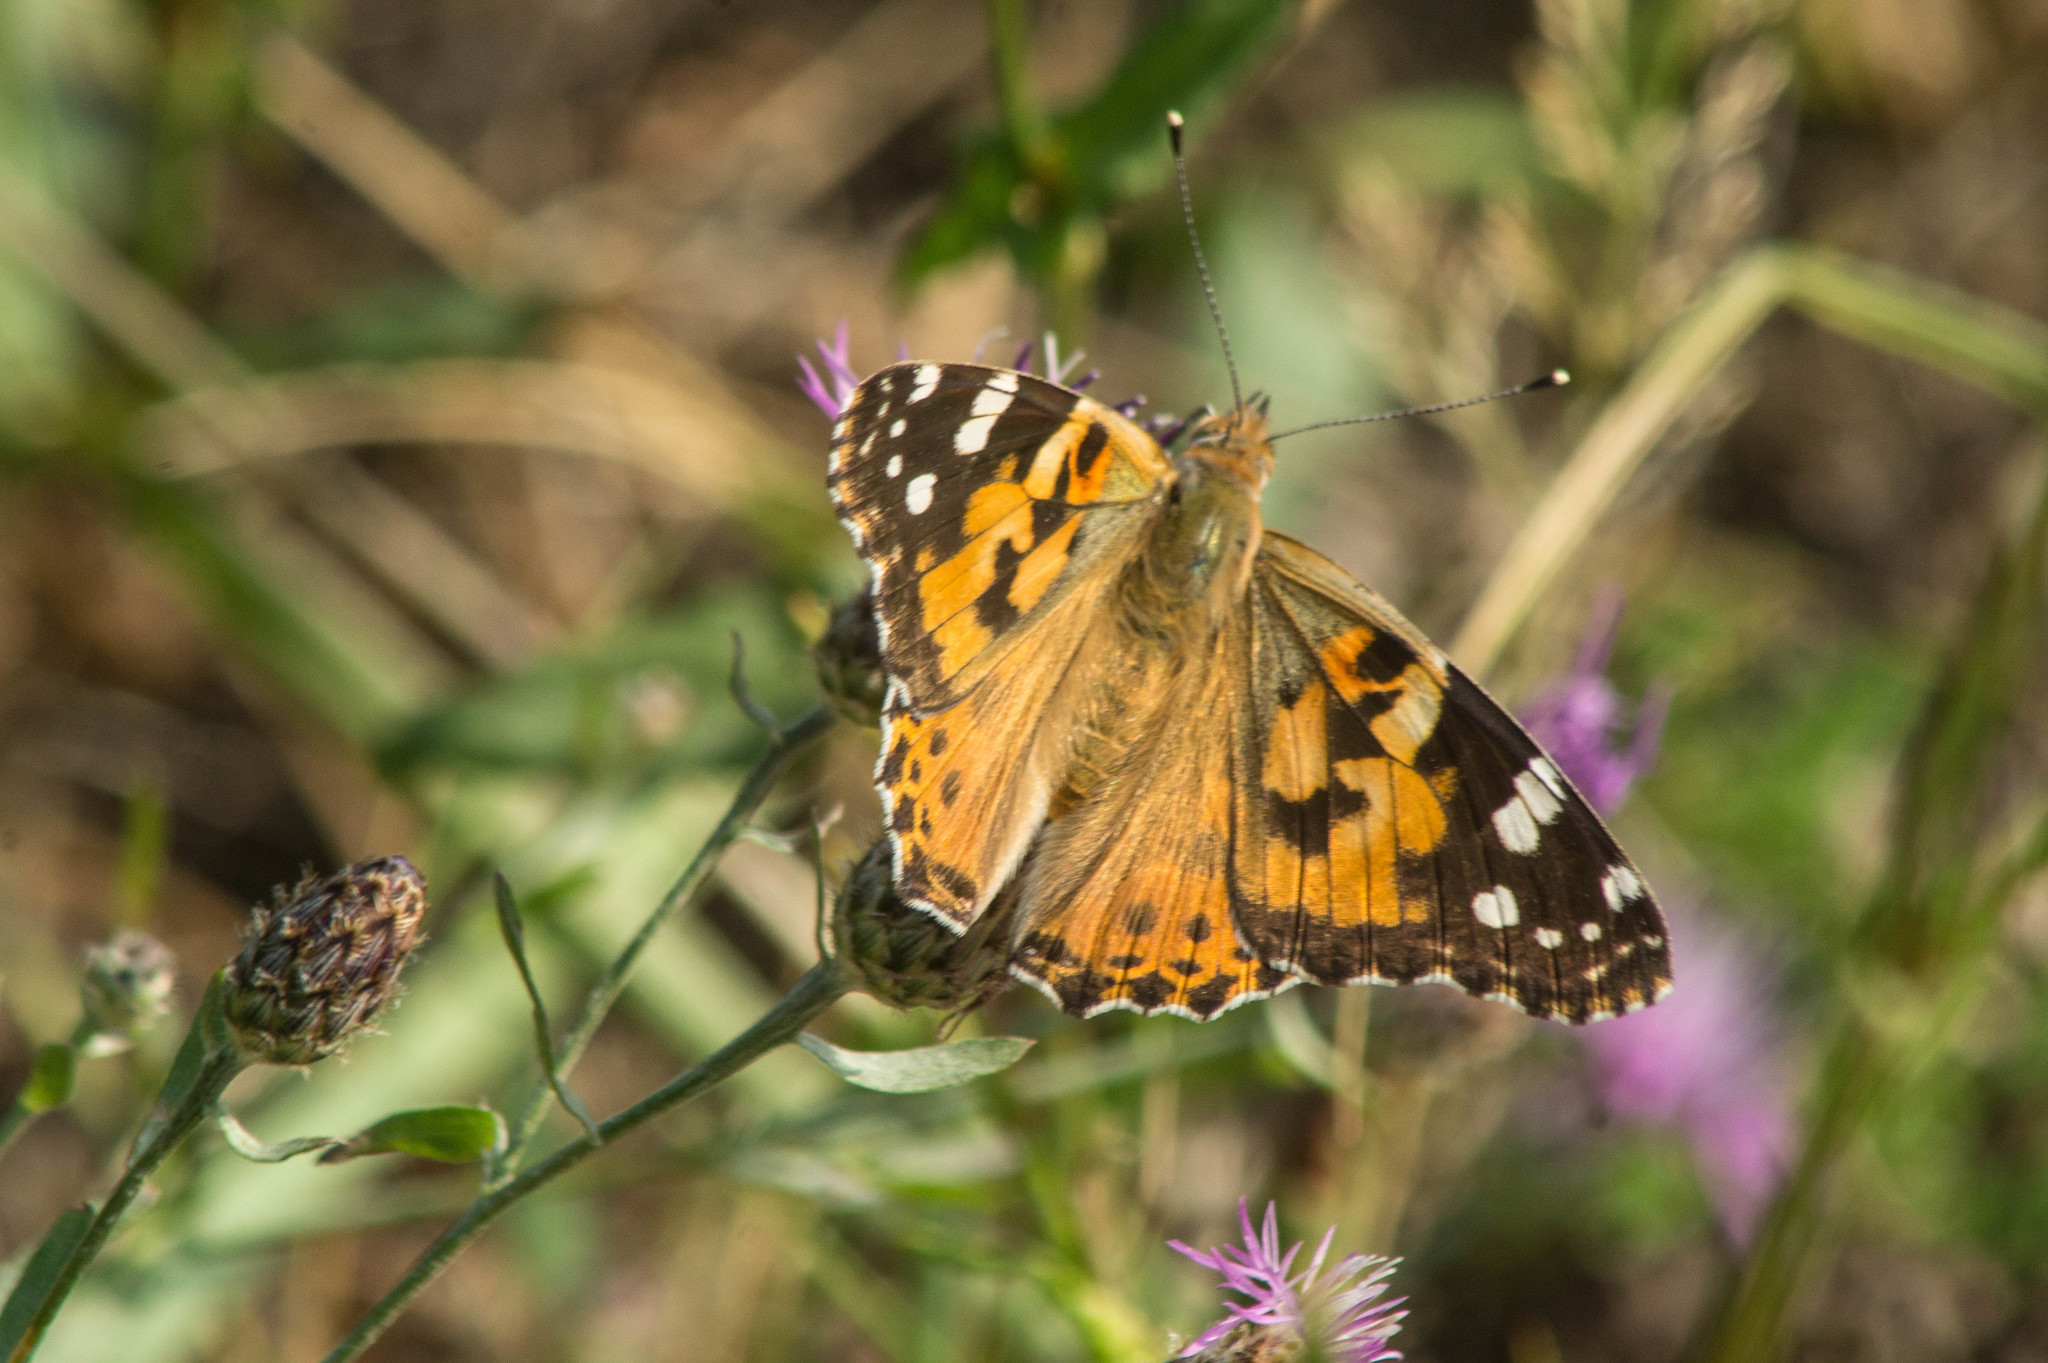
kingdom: Animalia
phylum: Arthropoda
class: Insecta
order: Lepidoptera
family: Nymphalidae
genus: Vanessa
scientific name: Vanessa cardui
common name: Painted lady
